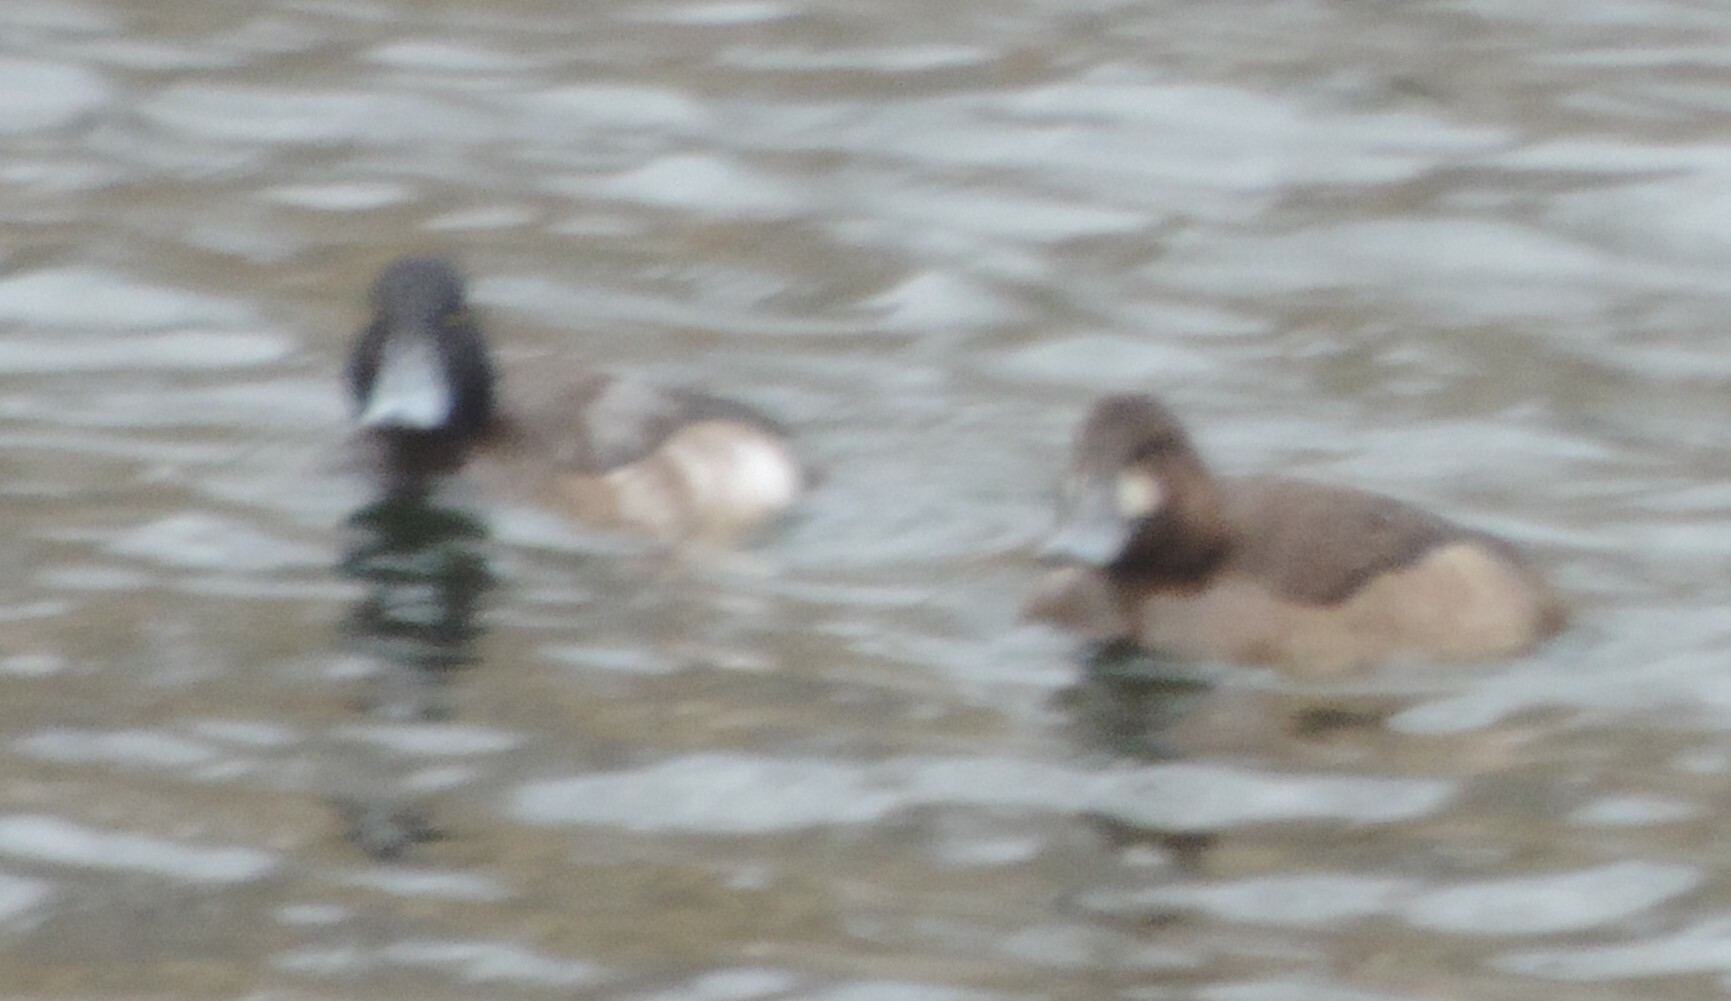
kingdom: Animalia
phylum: Chordata
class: Aves
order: Anseriformes
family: Anatidae
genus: Aythya
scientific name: Aythya marila
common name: Greater scaup
